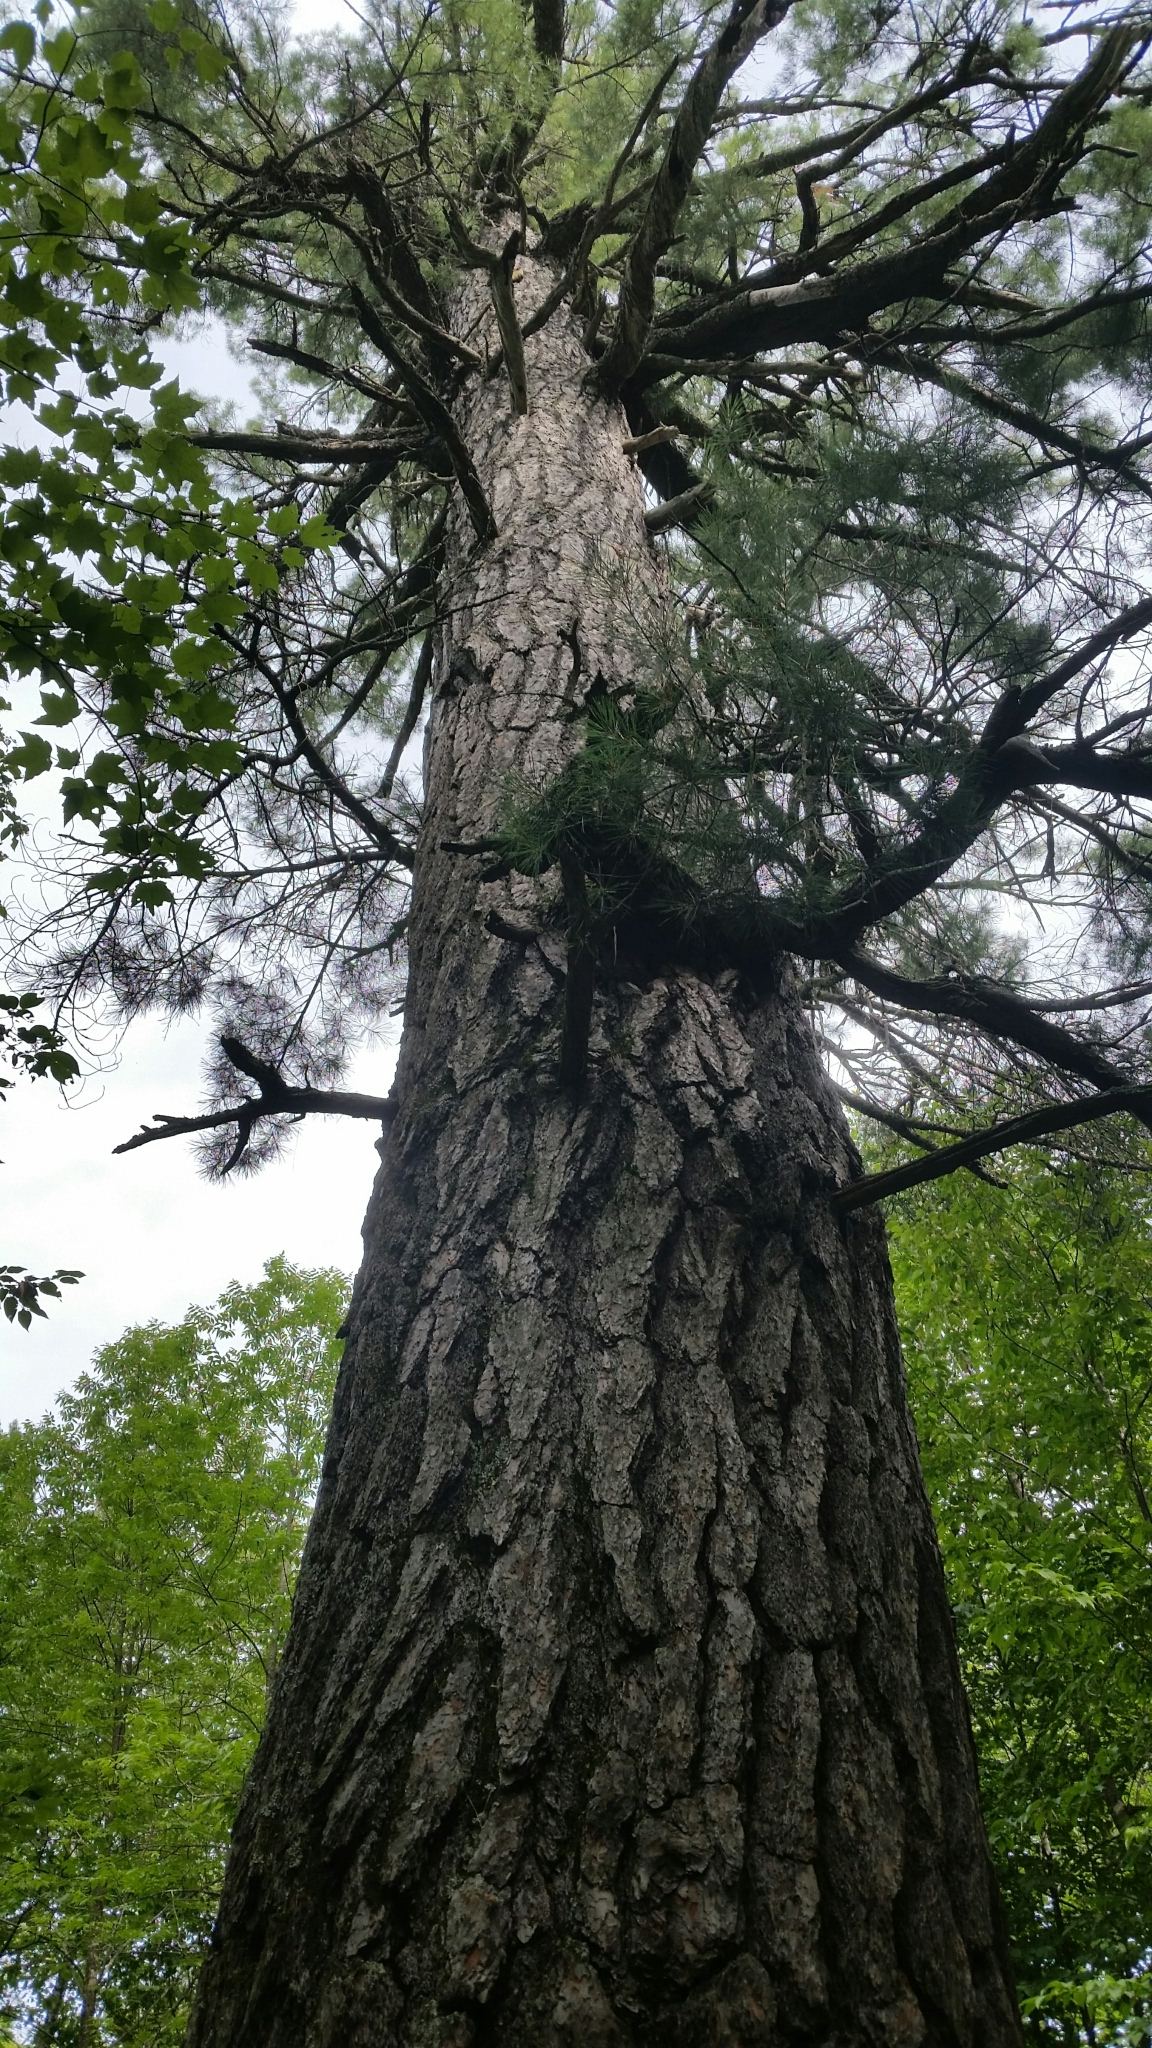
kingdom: Plantae
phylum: Tracheophyta
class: Pinopsida
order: Pinales
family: Pinaceae
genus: Pinus
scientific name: Pinus strobus
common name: Weymouth pine
